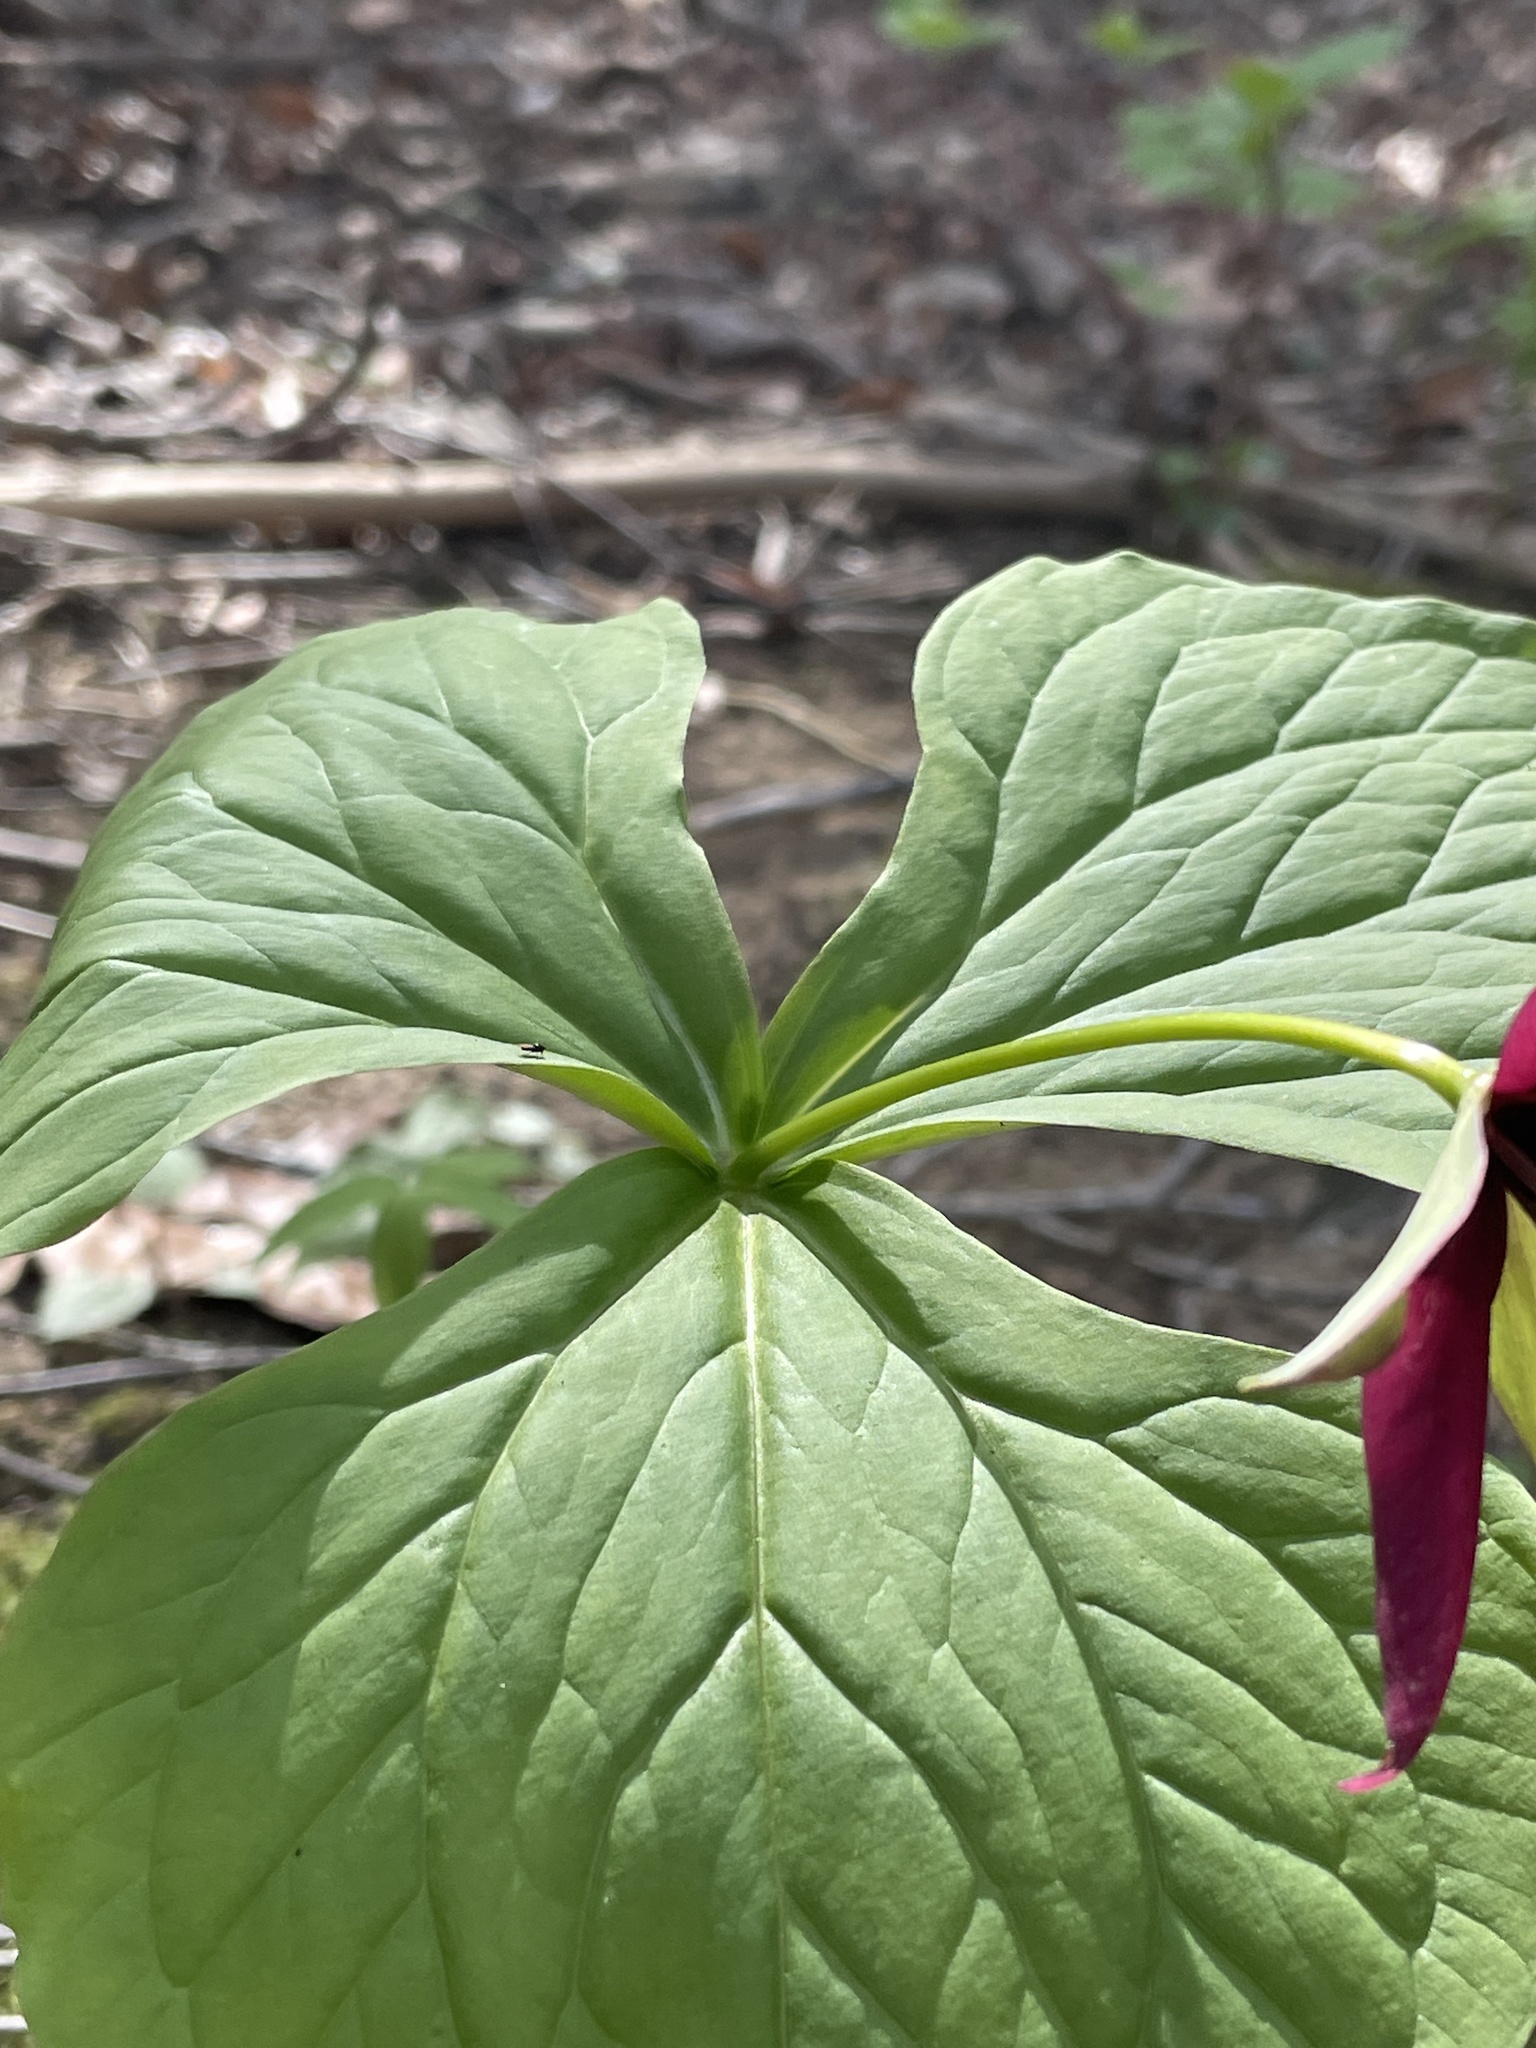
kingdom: Plantae
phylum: Tracheophyta
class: Liliopsida
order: Liliales
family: Melanthiaceae
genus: Trillium
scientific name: Trillium erectum
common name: Purple trillium
